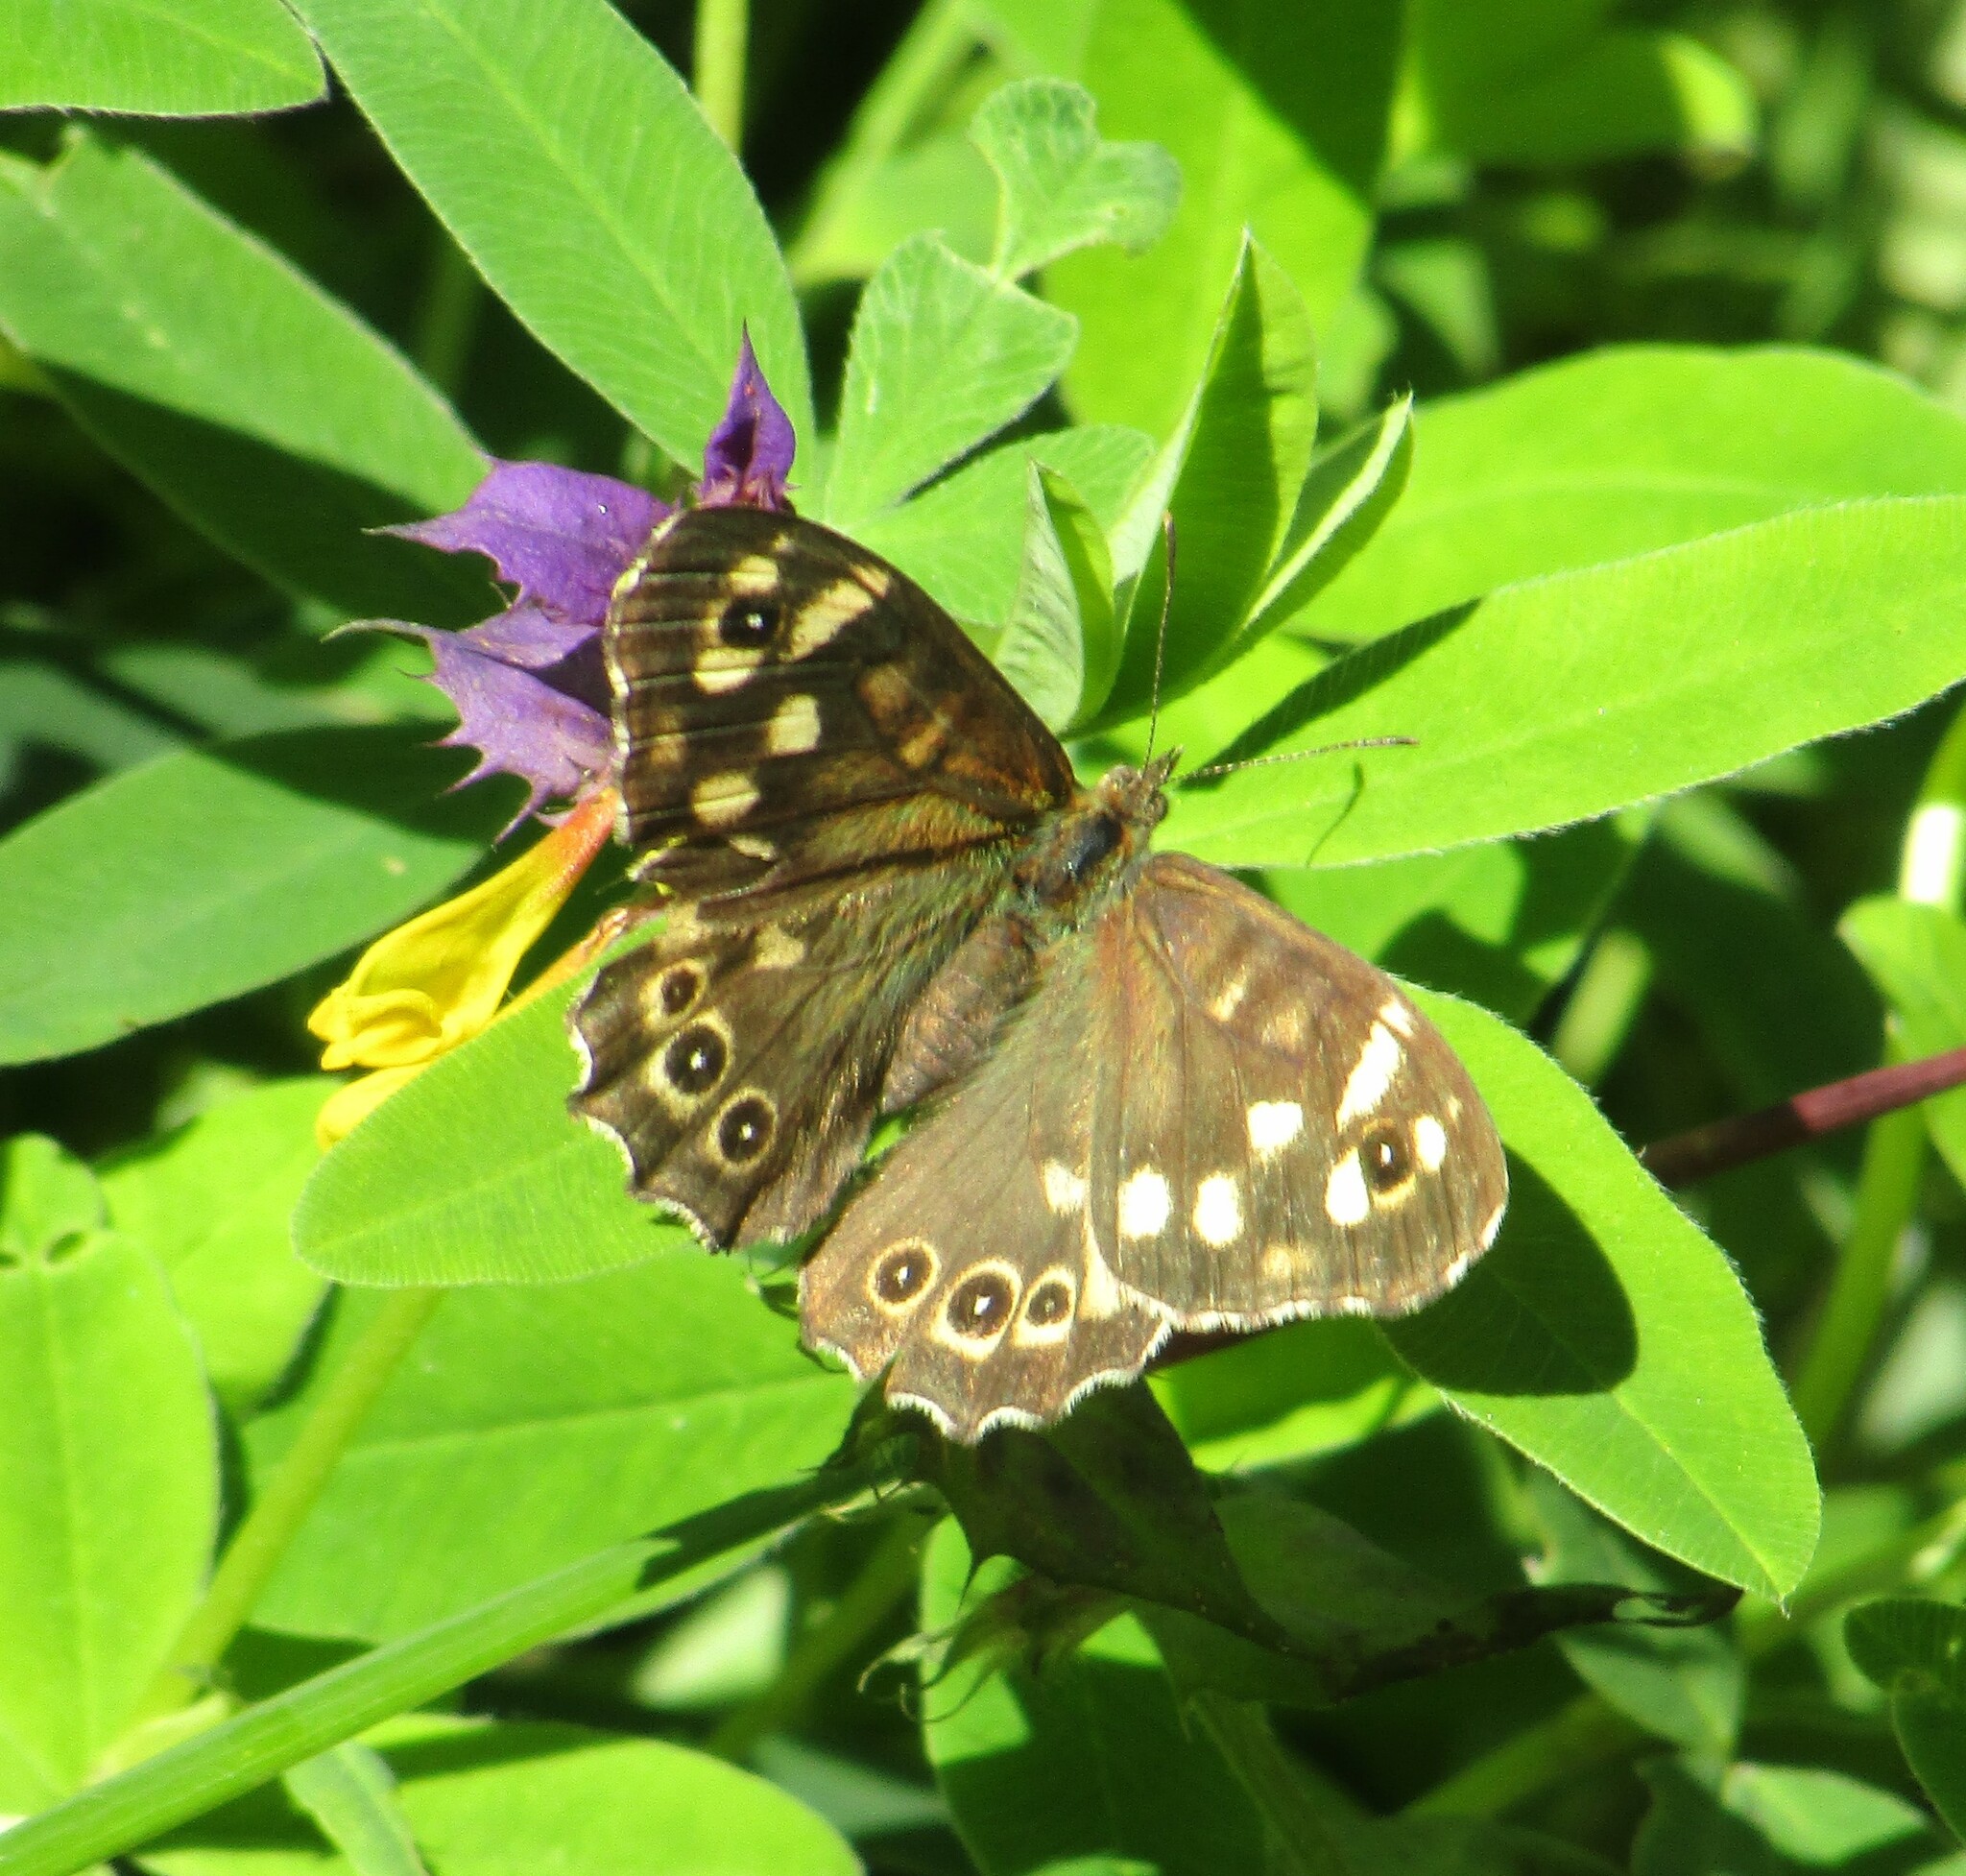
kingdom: Animalia
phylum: Arthropoda
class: Insecta
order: Lepidoptera
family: Nymphalidae
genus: Pararge
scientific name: Pararge aegeria
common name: Speckled wood
